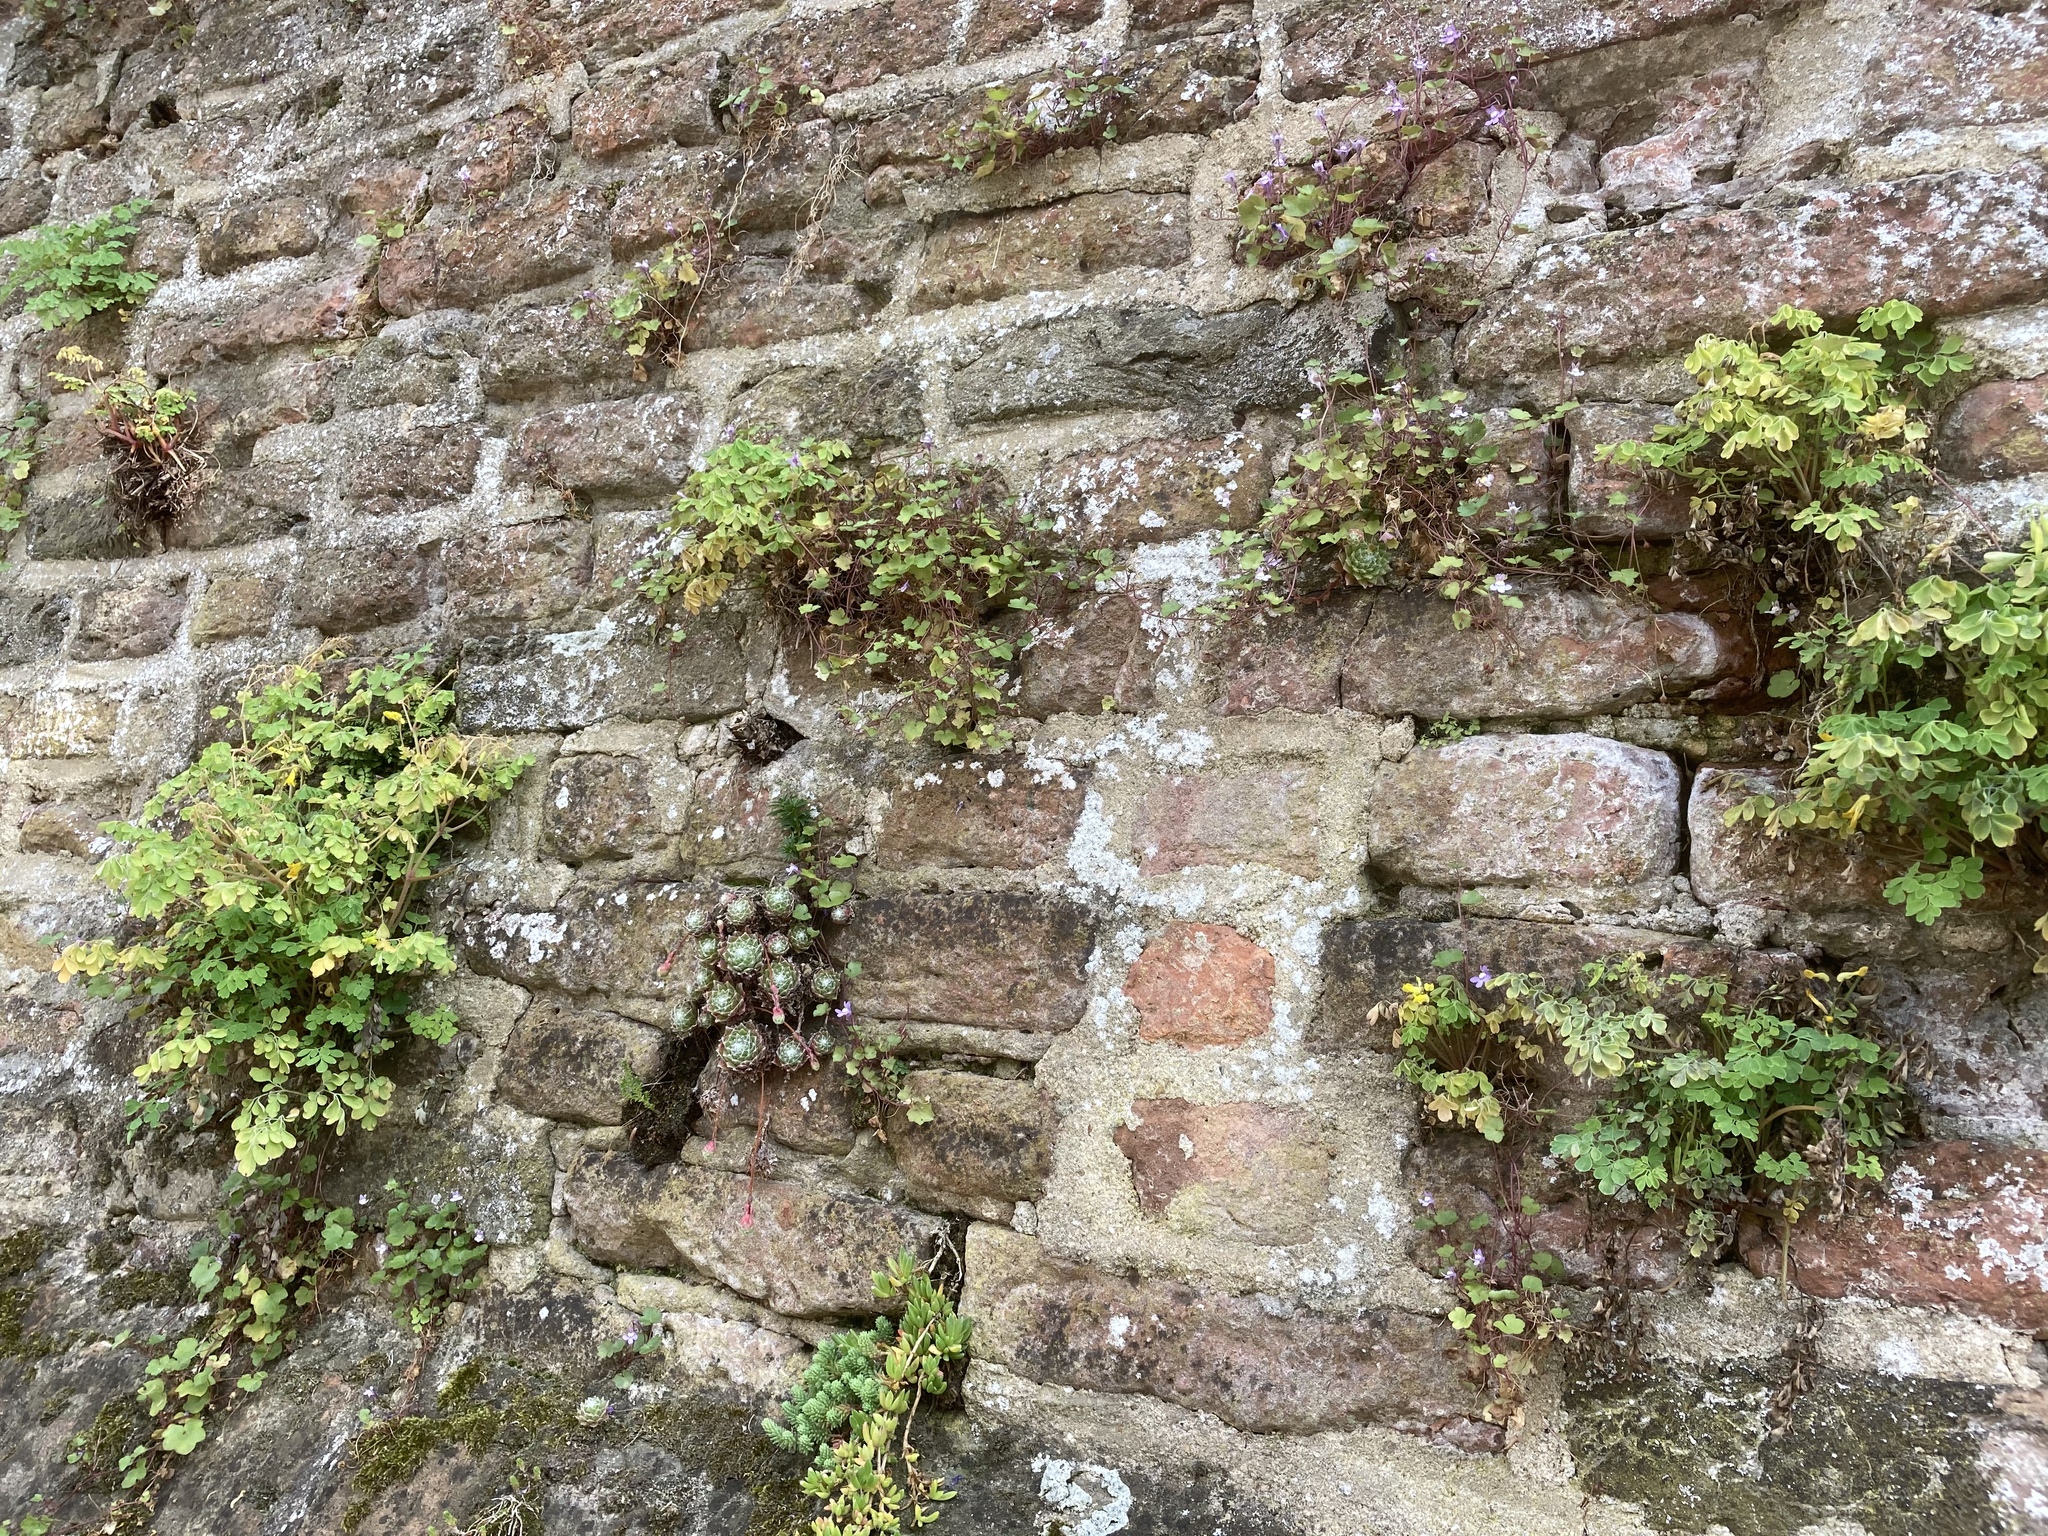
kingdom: Plantae
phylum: Tracheophyta
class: Magnoliopsida
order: Lamiales
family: Plantaginaceae
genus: Cymbalaria
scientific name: Cymbalaria muralis
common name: Ivy-leaved toadflax
